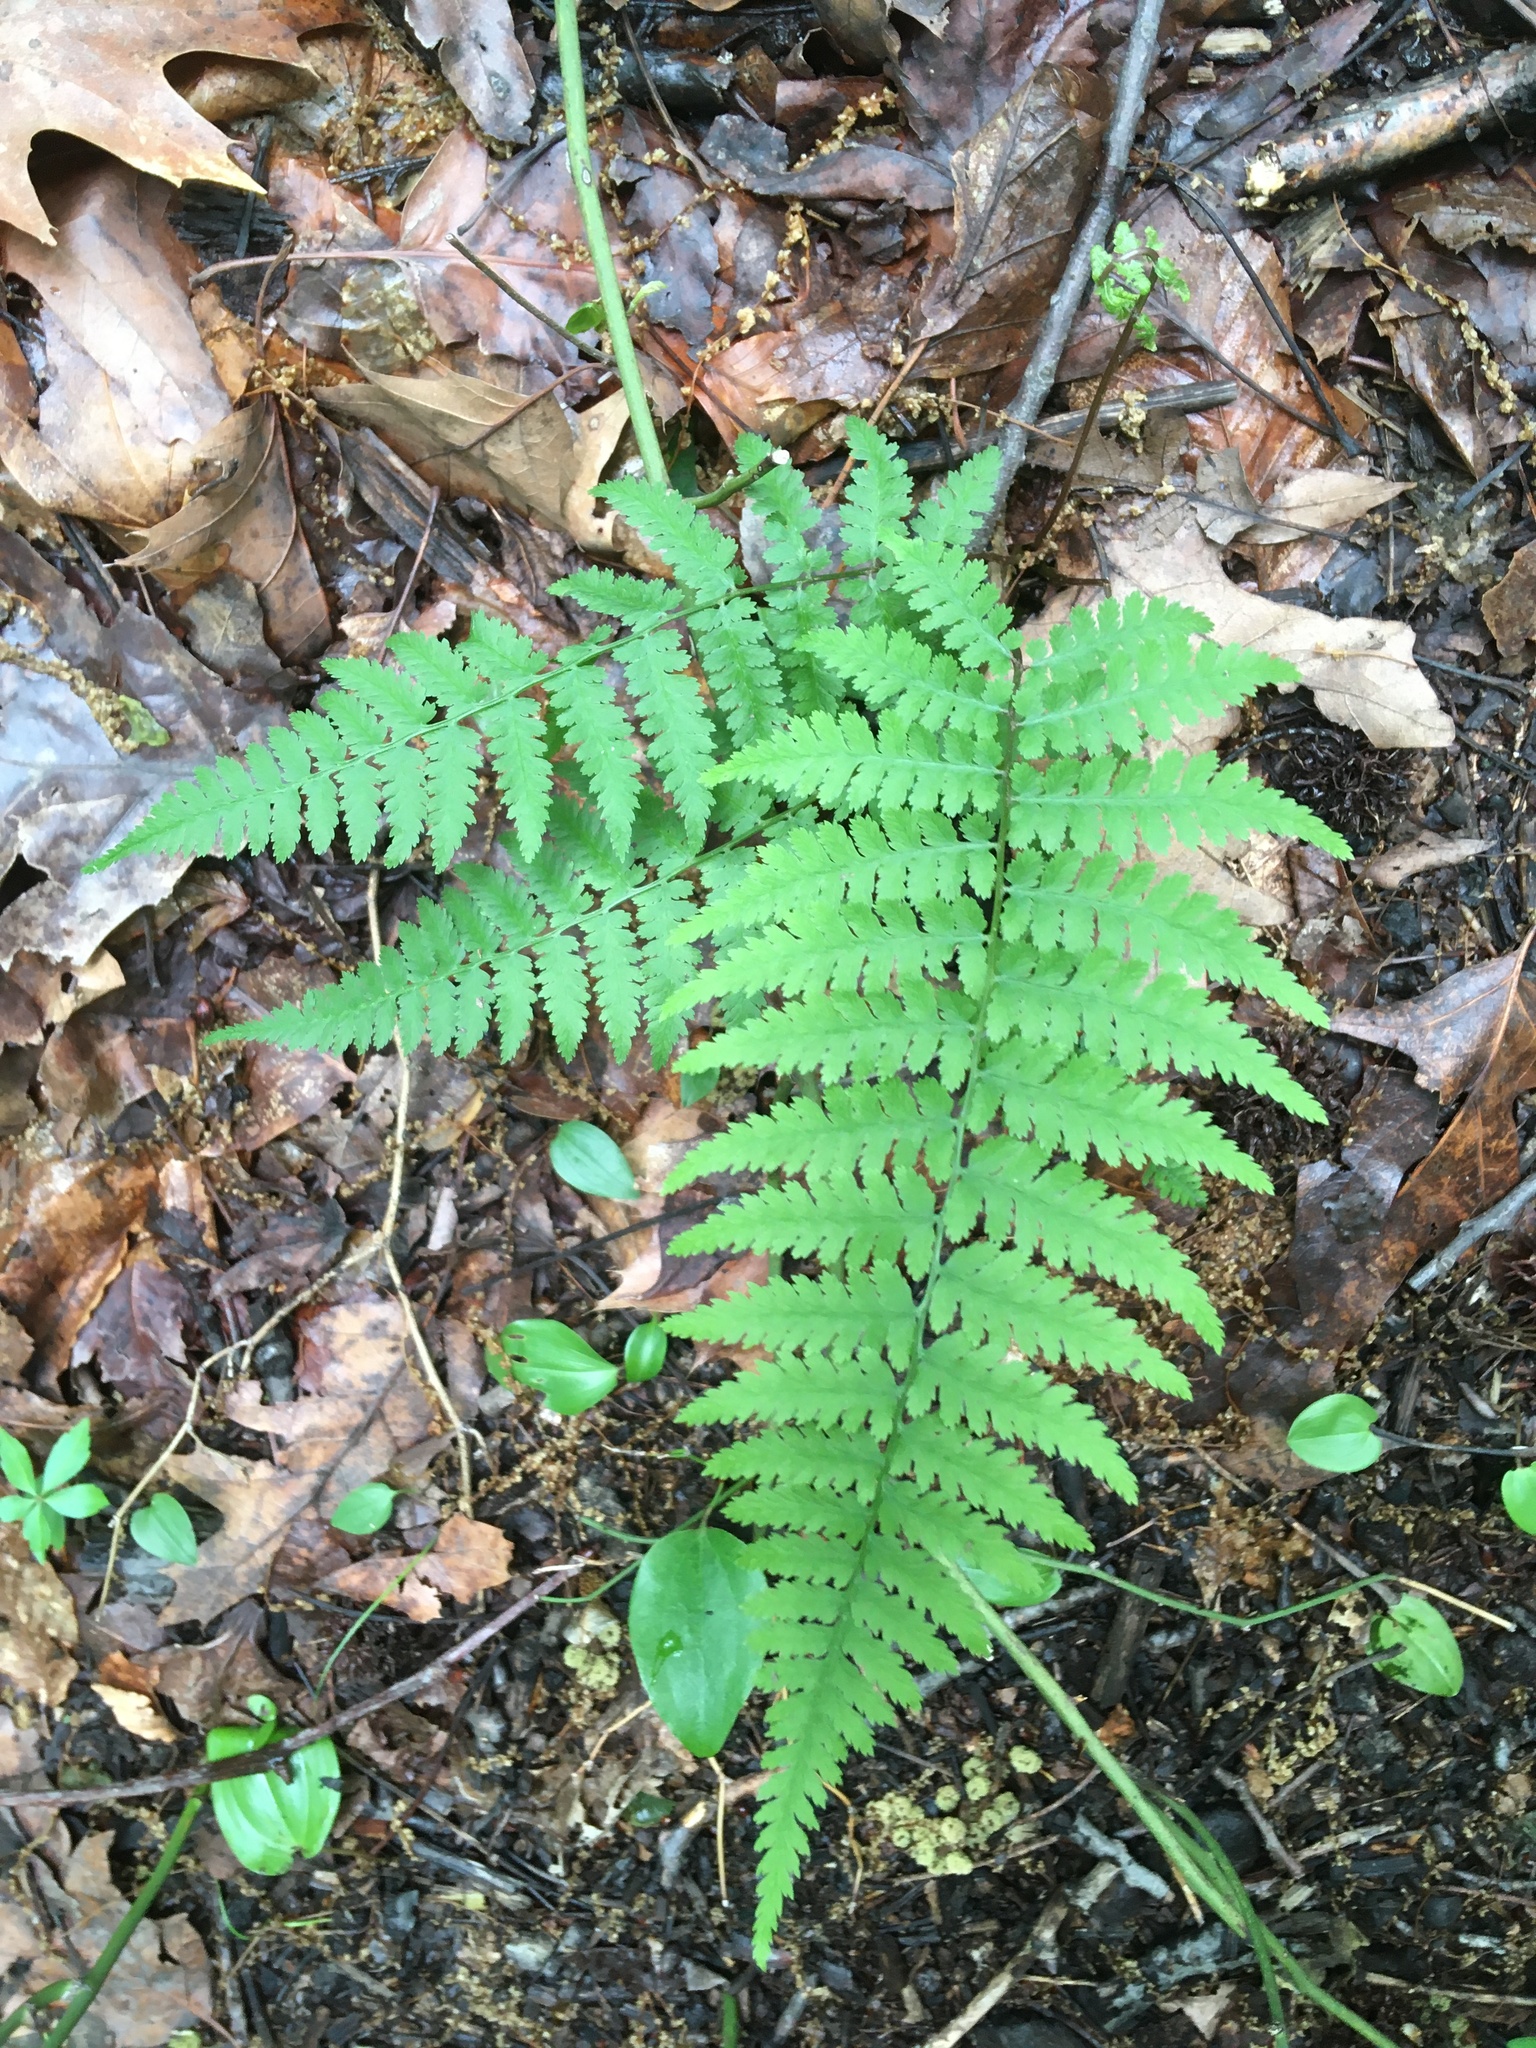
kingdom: Plantae
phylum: Tracheophyta
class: Polypodiopsida
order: Polypodiales
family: Thelypteridaceae
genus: Amauropelta
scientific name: Amauropelta noveboracensis
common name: New york fern
